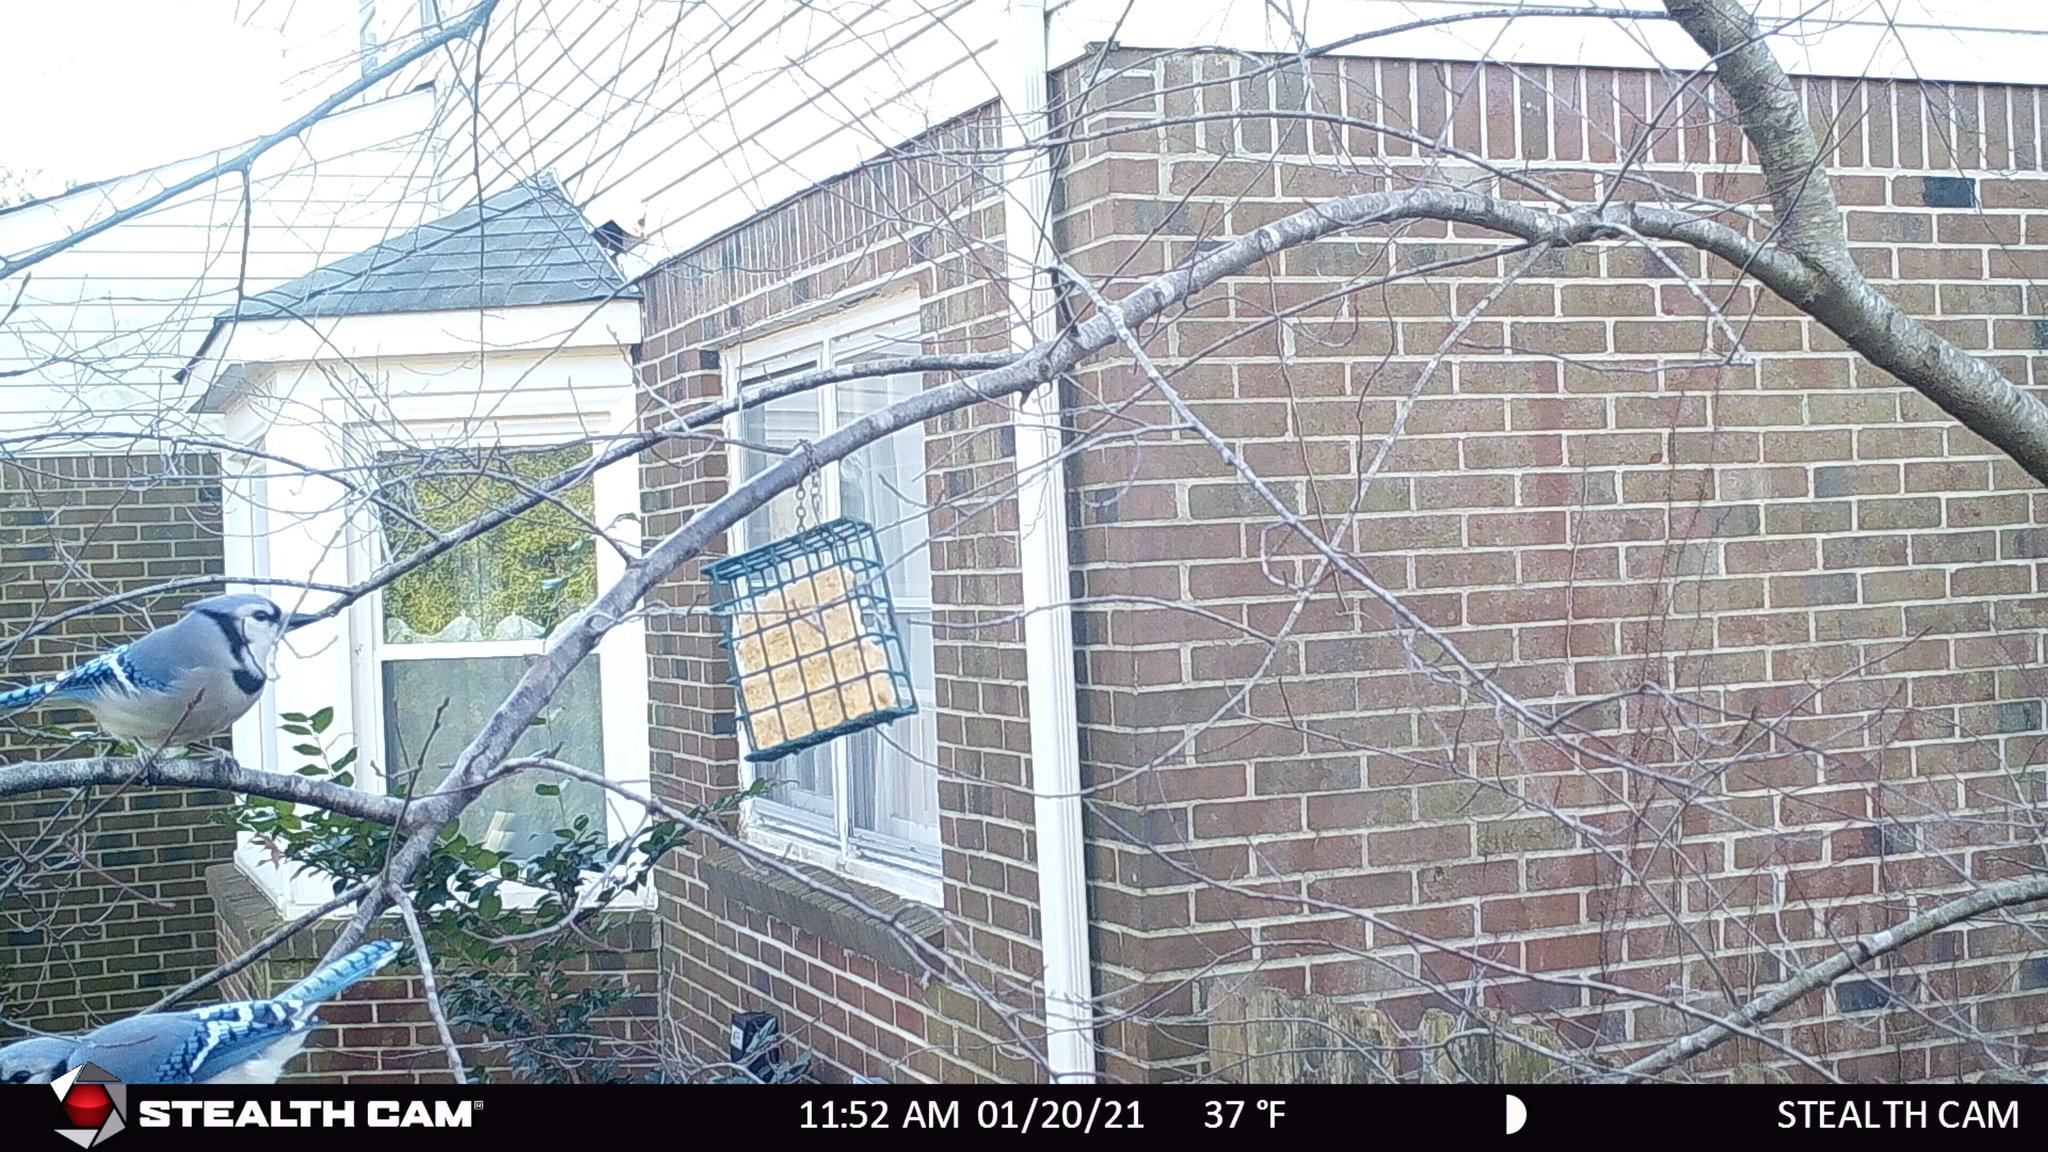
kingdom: Animalia
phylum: Chordata
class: Aves
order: Passeriformes
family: Corvidae
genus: Cyanocitta
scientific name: Cyanocitta cristata
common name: Blue jay
